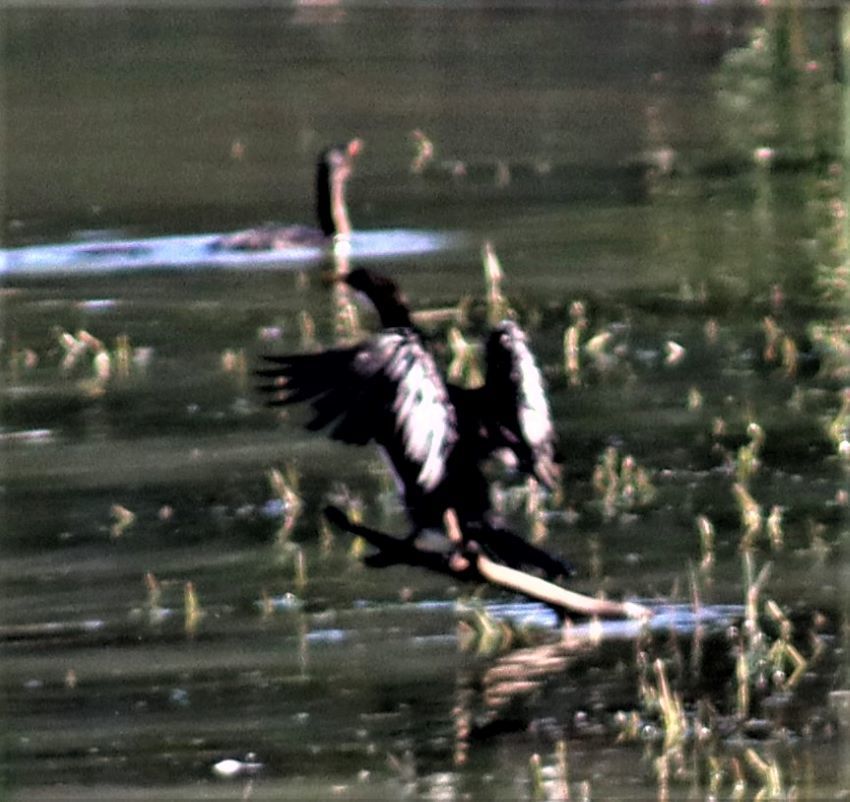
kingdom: Animalia
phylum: Chordata
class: Aves
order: Suliformes
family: Phalacrocoracidae
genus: Microcarbo
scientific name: Microcarbo africanus
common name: Long-tailed cormorant
